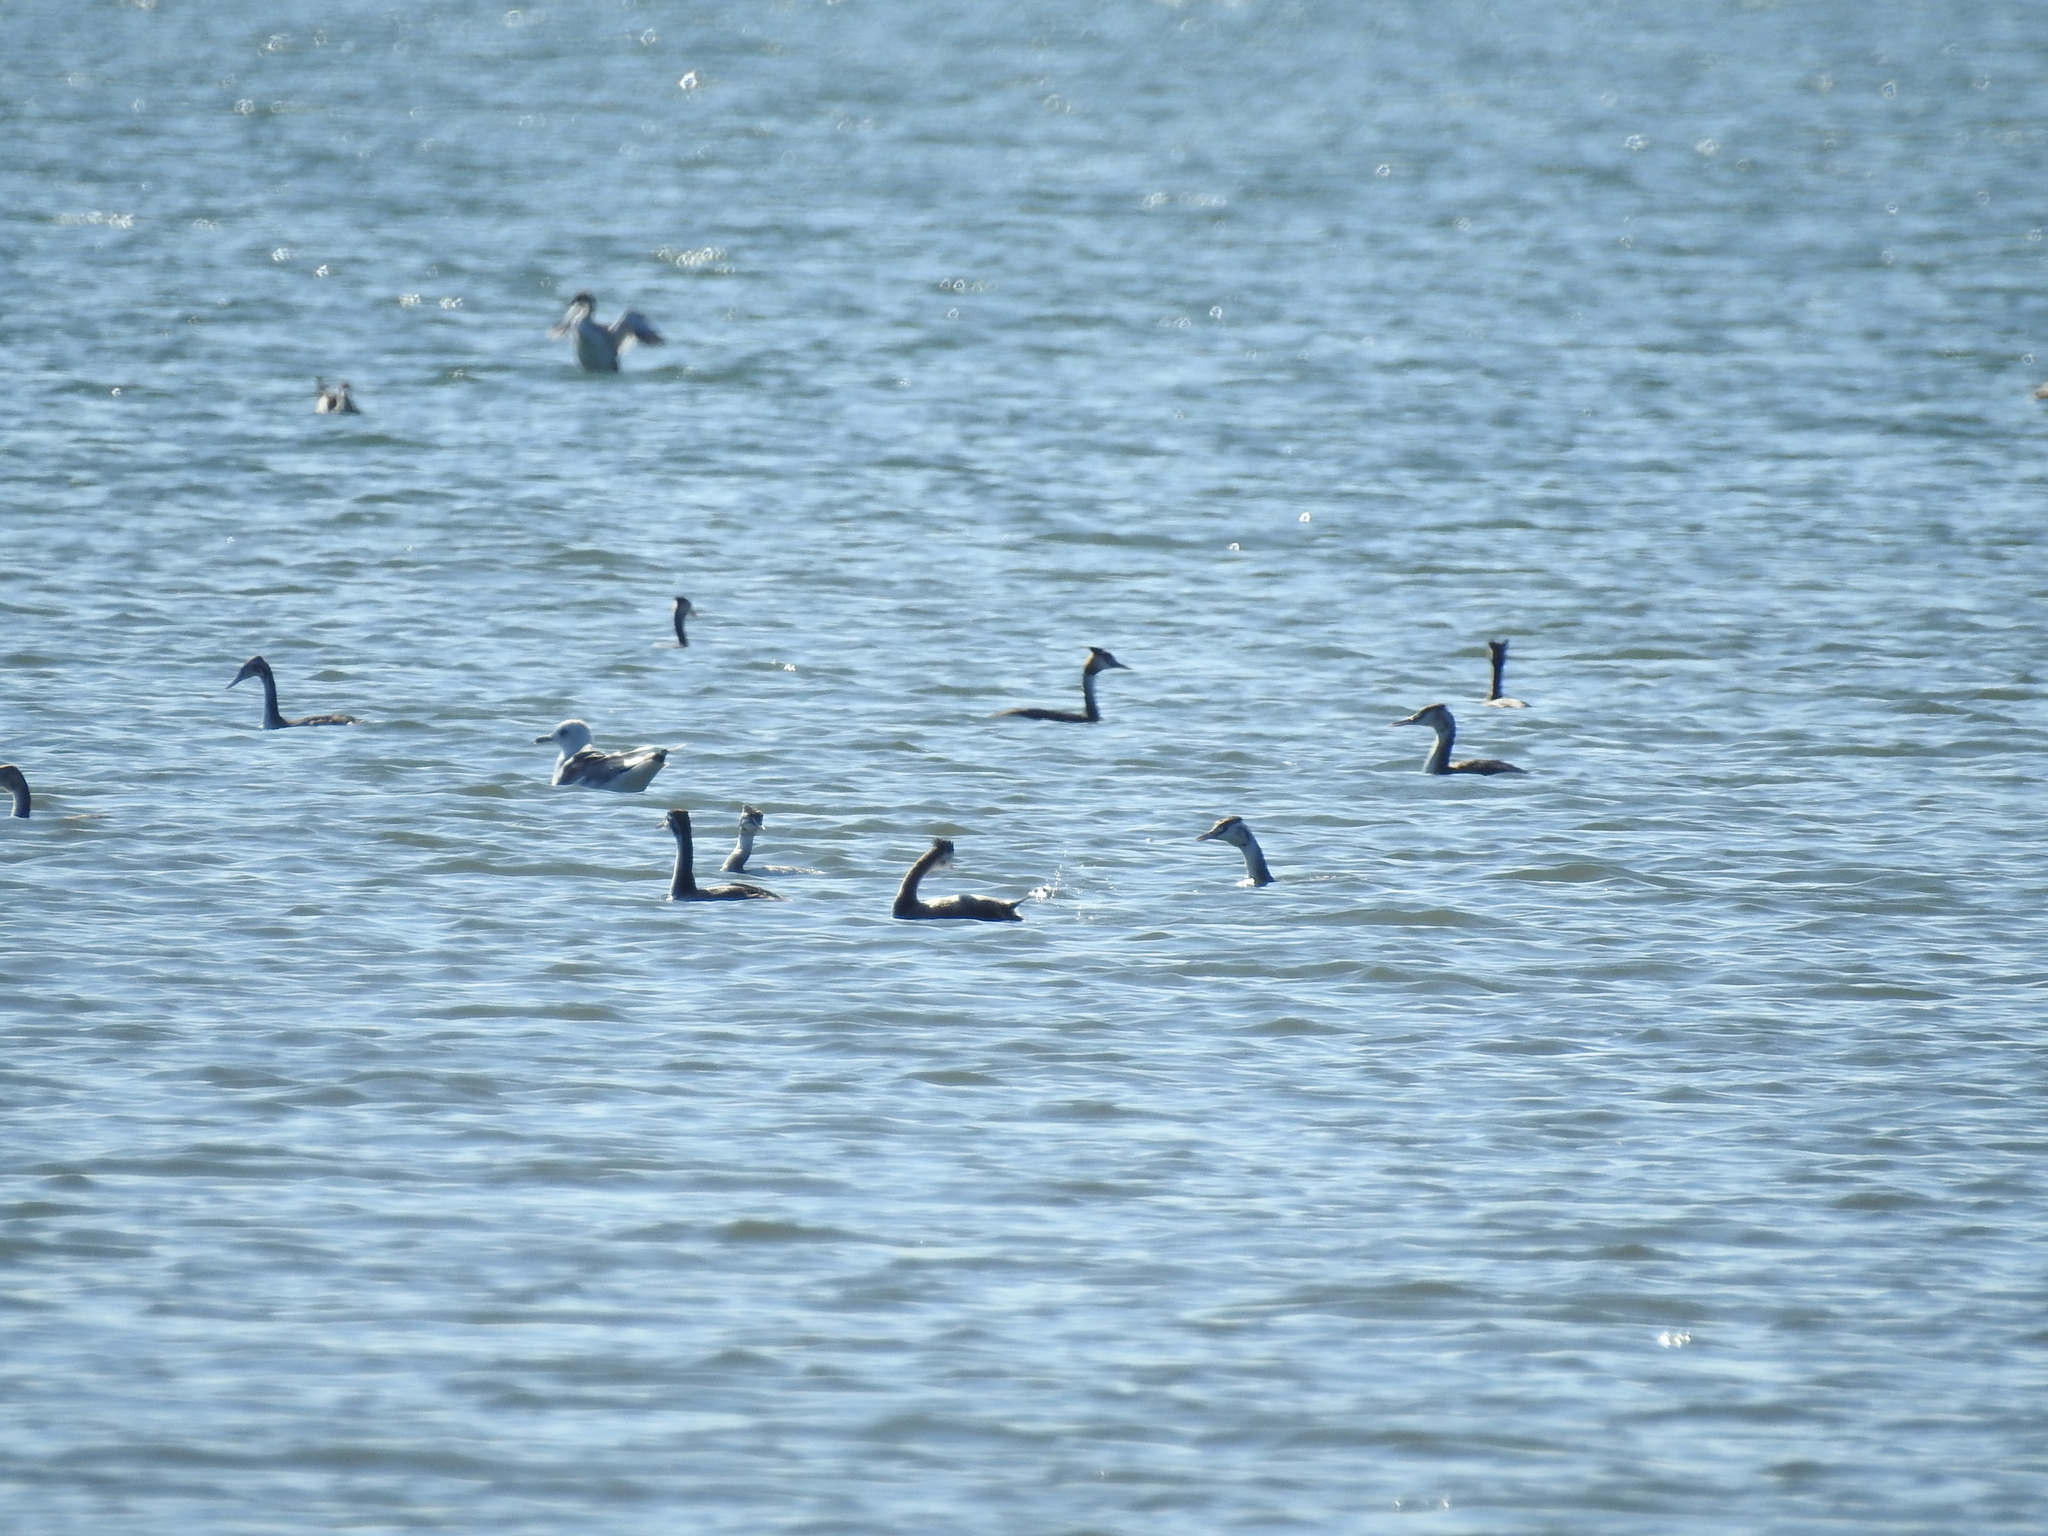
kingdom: Animalia
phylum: Chordata
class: Aves
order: Podicipediformes
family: Podicipedidae
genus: Podiceps
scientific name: Podiceps cristatus
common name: Great crested grebe
